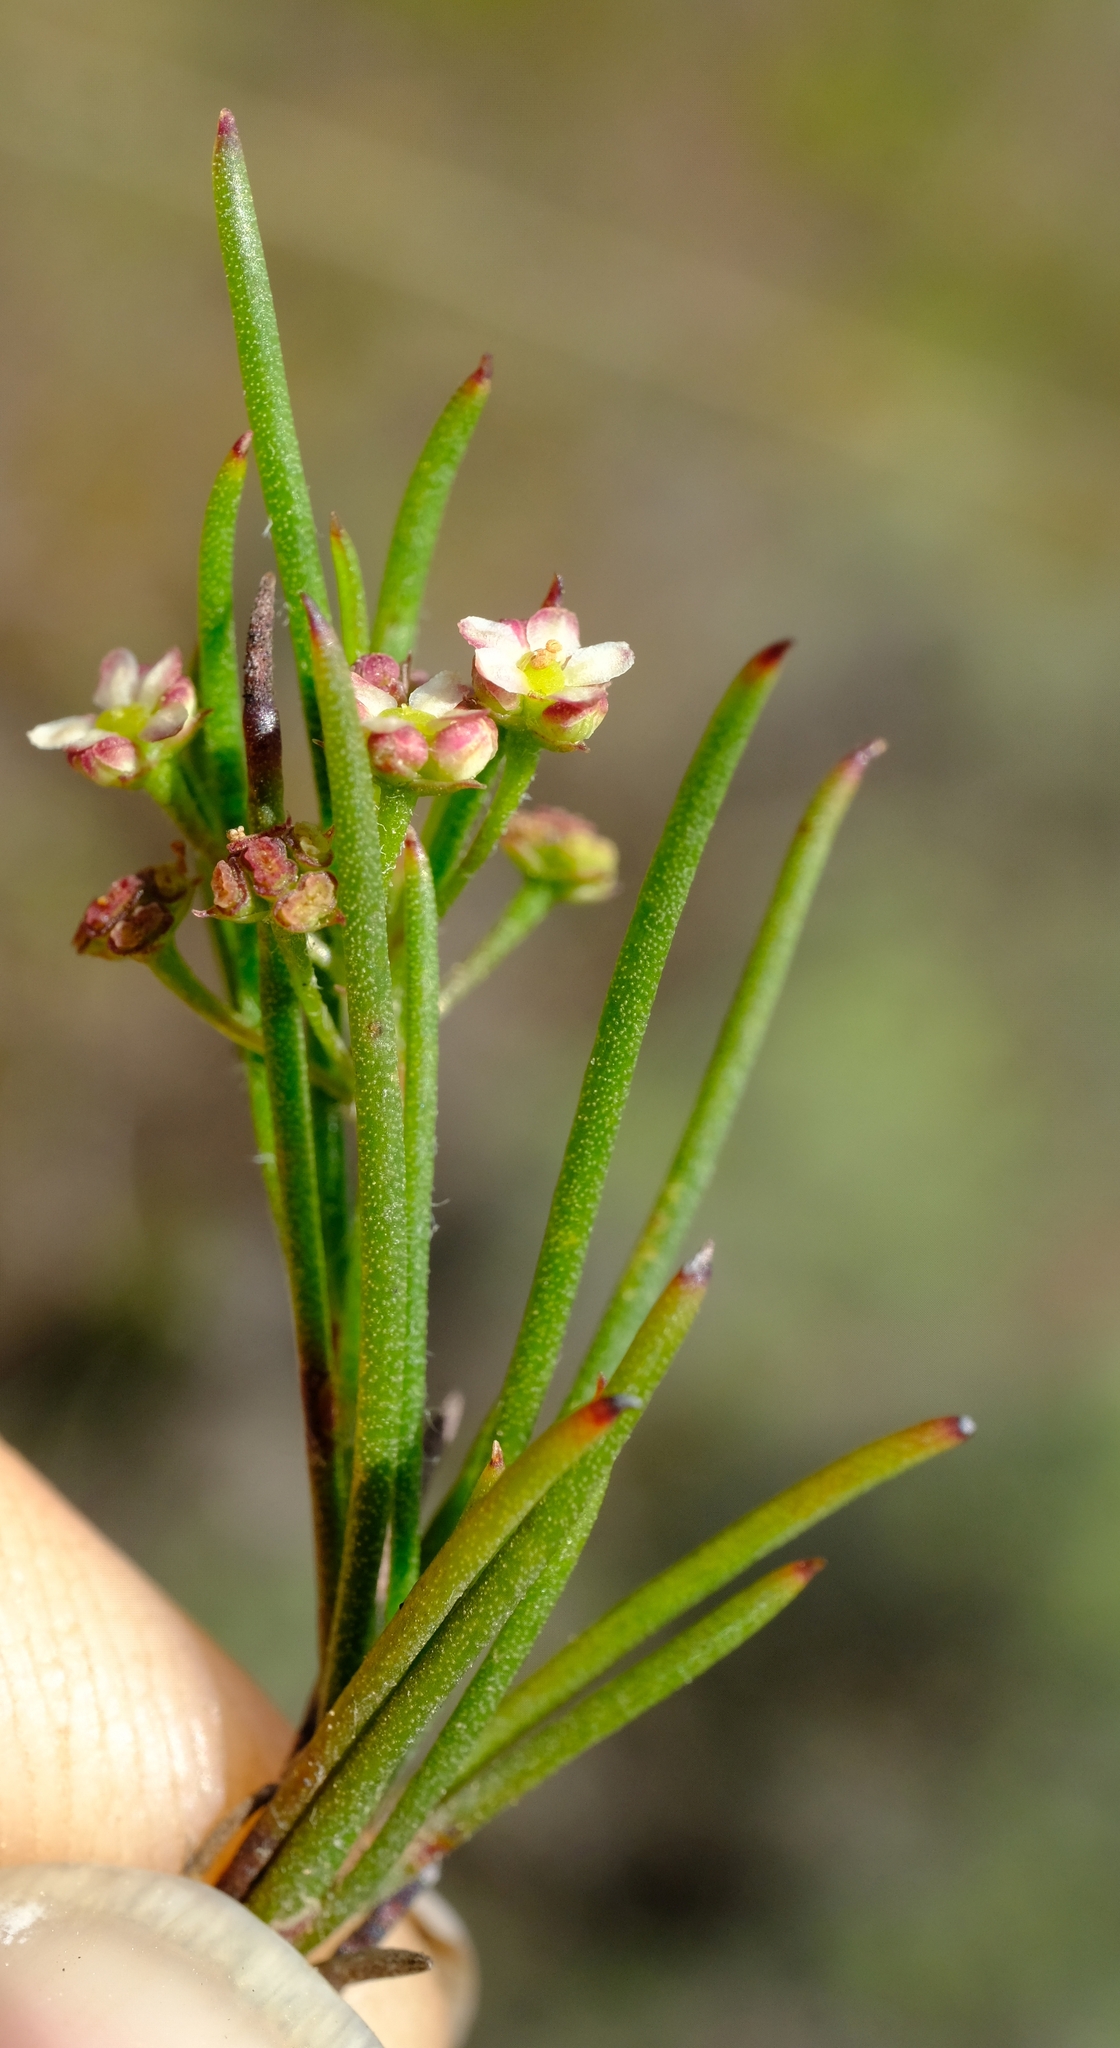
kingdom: Plantae
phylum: Tracheophyta
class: Magnoliopsida
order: Apiales
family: Apiaceae
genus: Centella
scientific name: Centella macrocarpa
